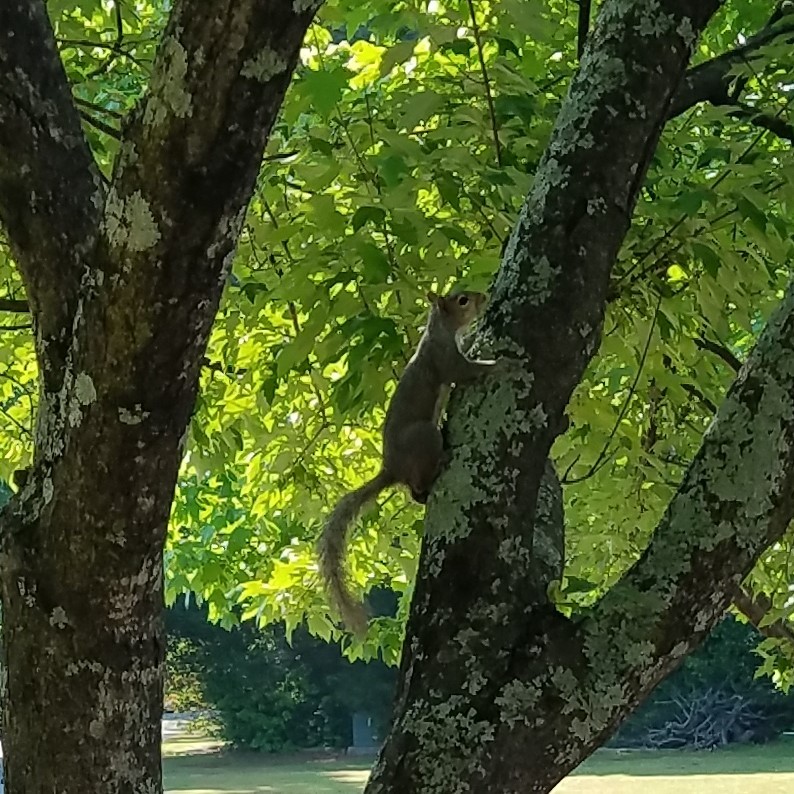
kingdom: Animalia
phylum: Chordata
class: Mammalia
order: Rodentia
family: Sciuridae
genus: Sciurus
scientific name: Sciurus carolinensis
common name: Eastern gray squirrel
